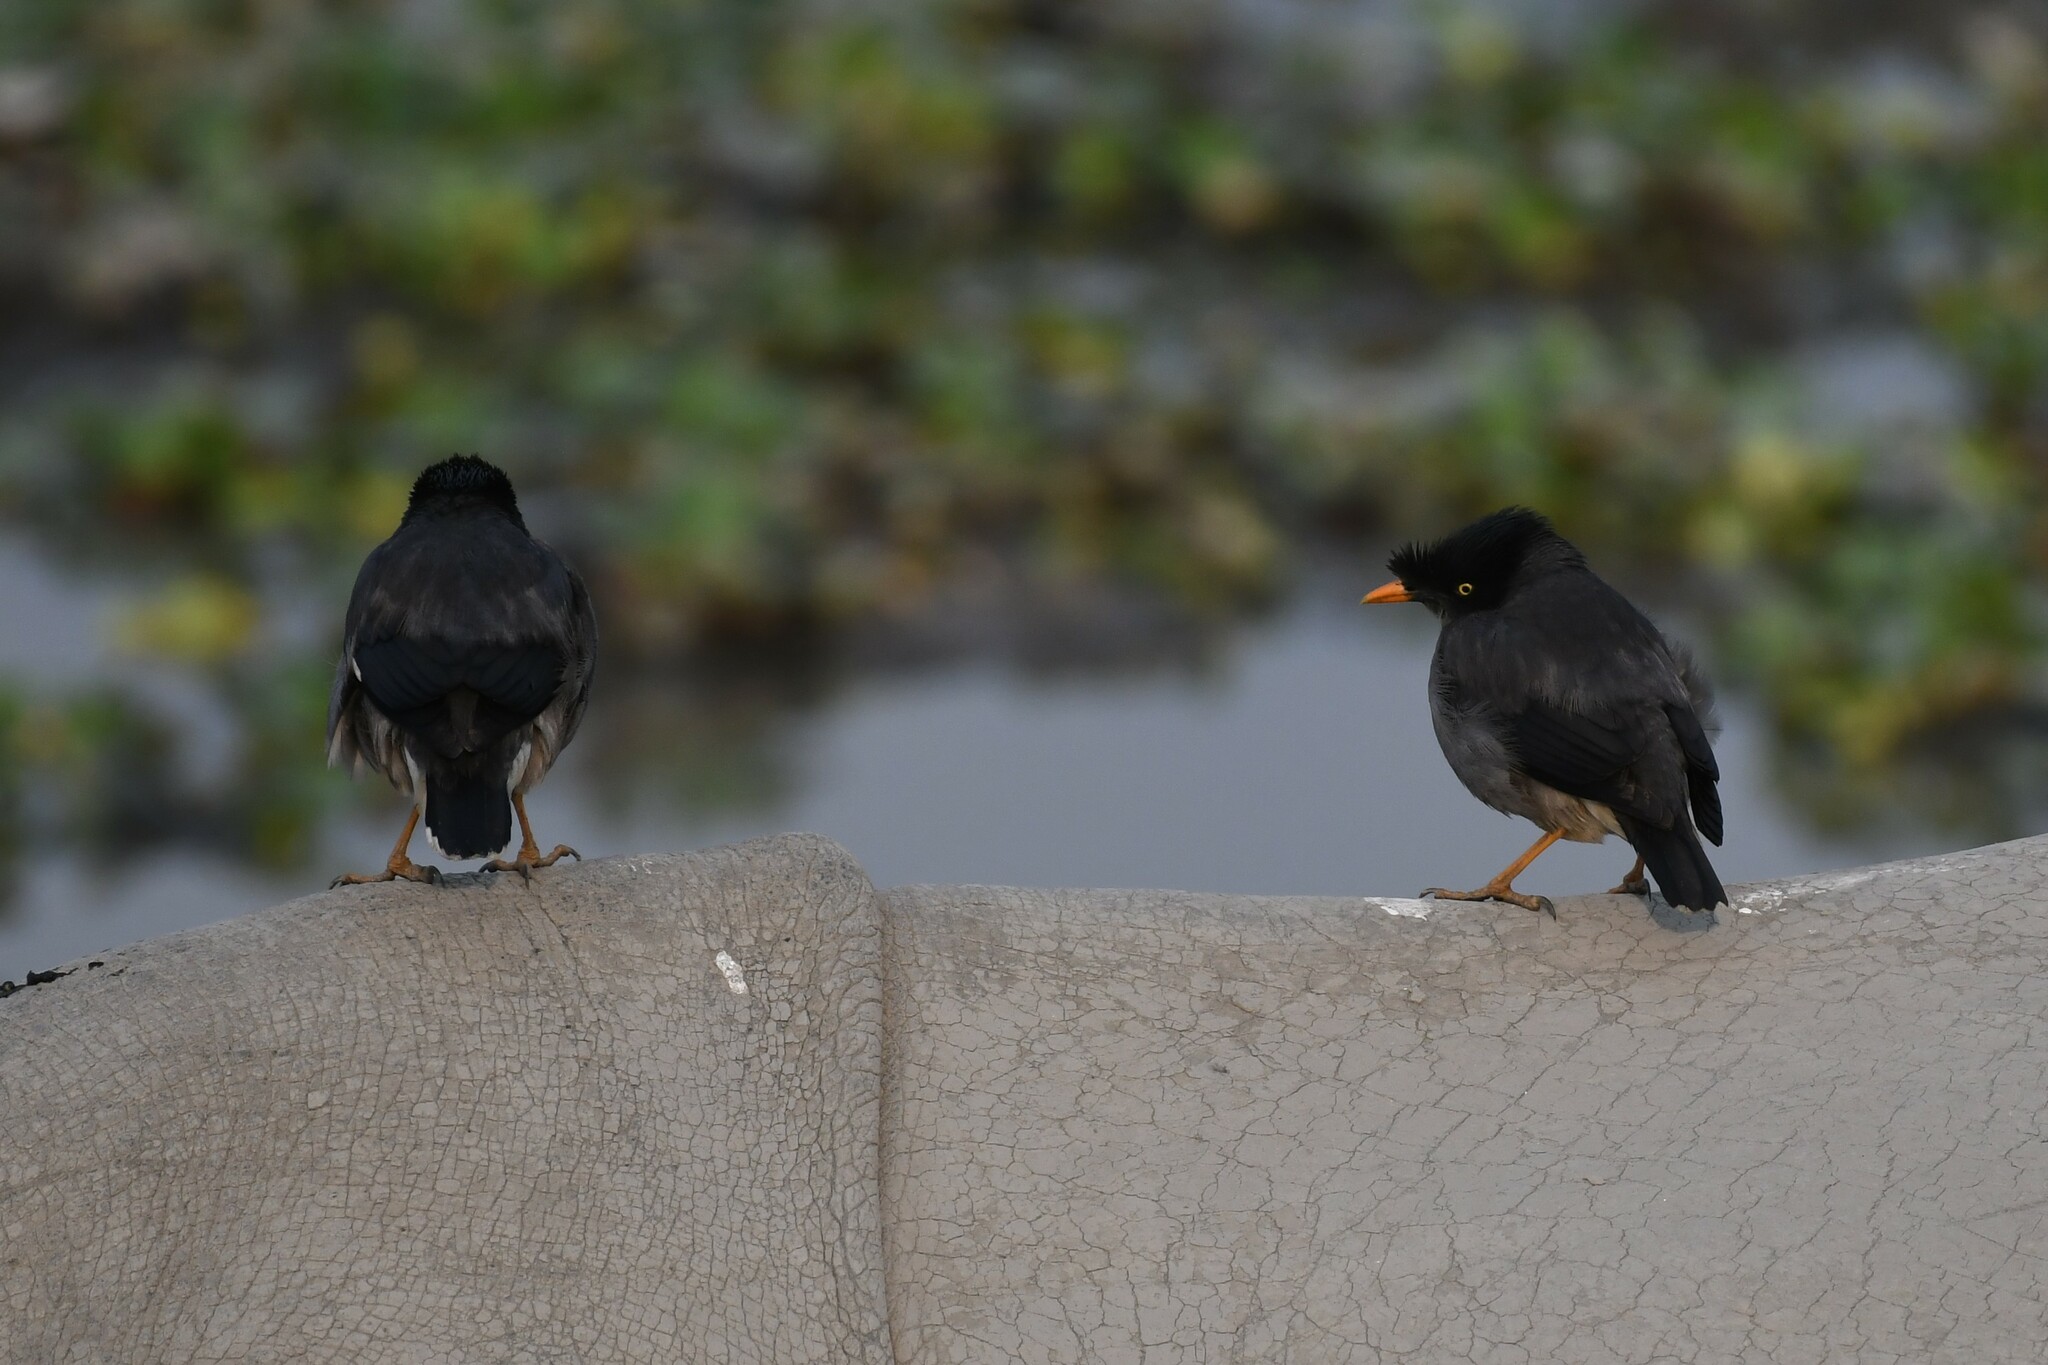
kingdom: Animalia
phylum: Chordata
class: Aves
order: Passeriformes
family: Sturnidae
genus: Acridotheres
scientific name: Acridotheres fuscus
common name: Jungle myna
